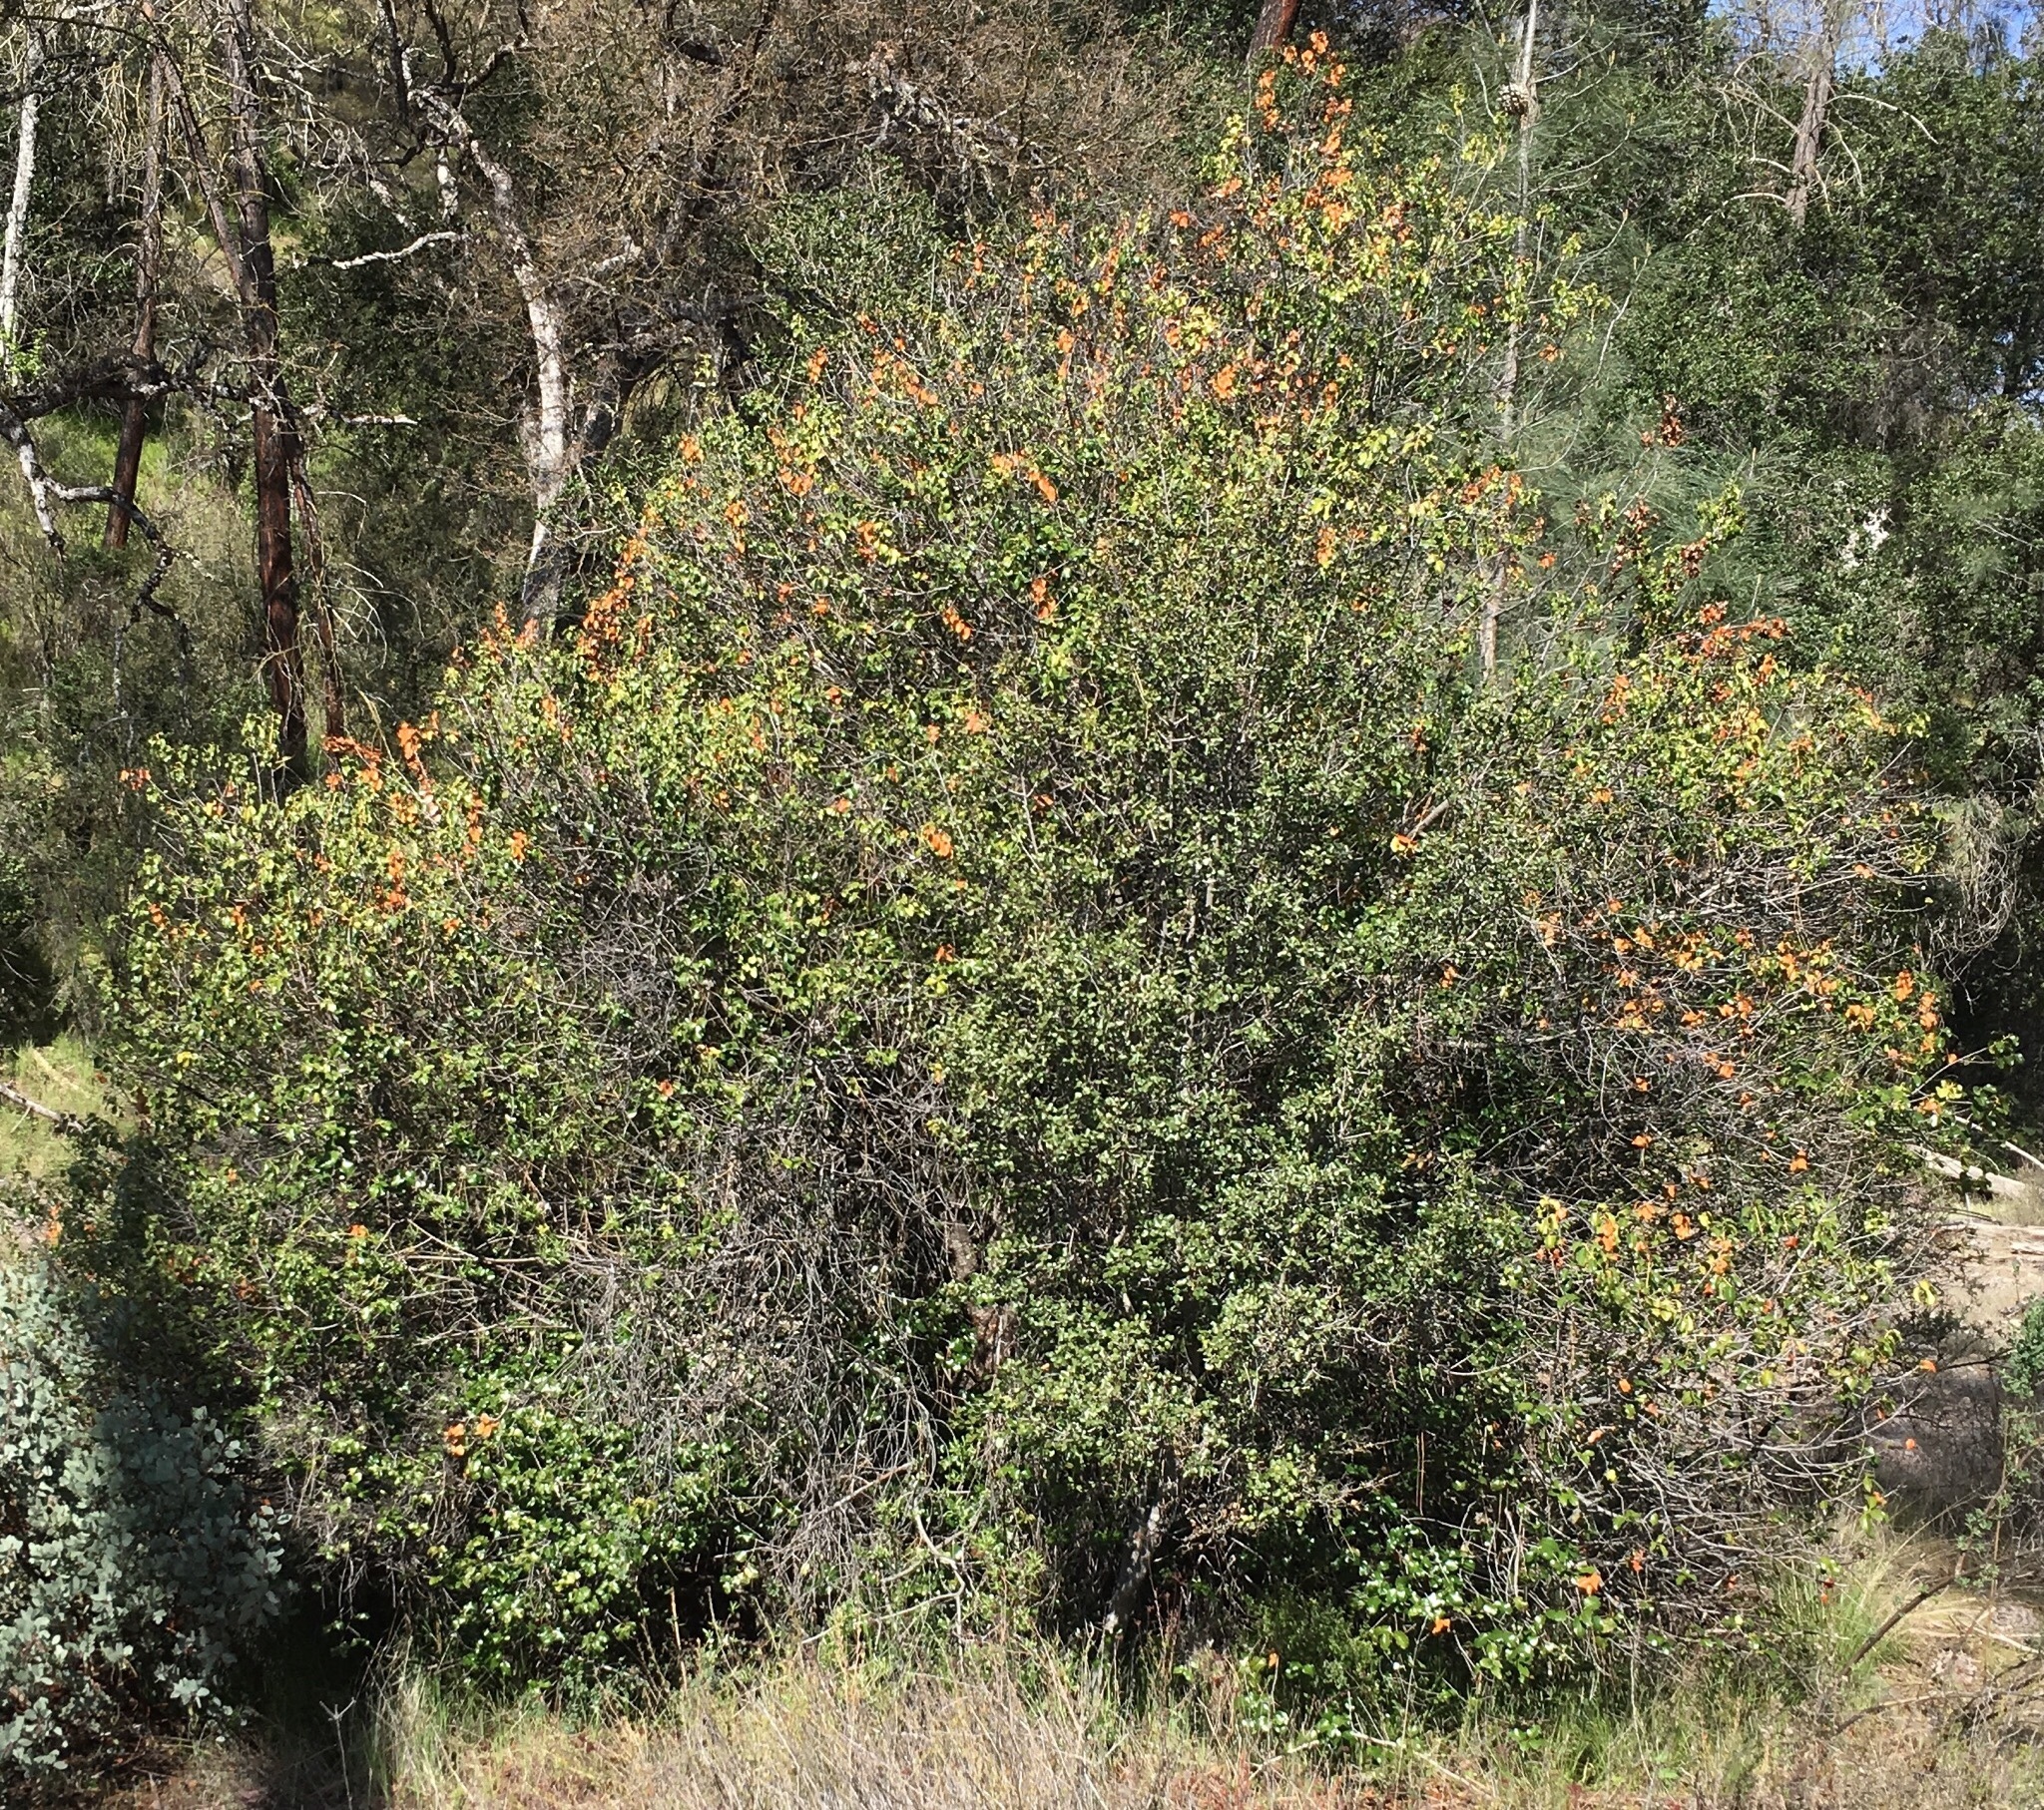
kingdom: Plantae
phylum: Tracheophyta
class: Magnoliopsida
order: Rosales
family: Rosaceae
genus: Prunus
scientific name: Prunus ilicifolia
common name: Hollyleaf cherry
